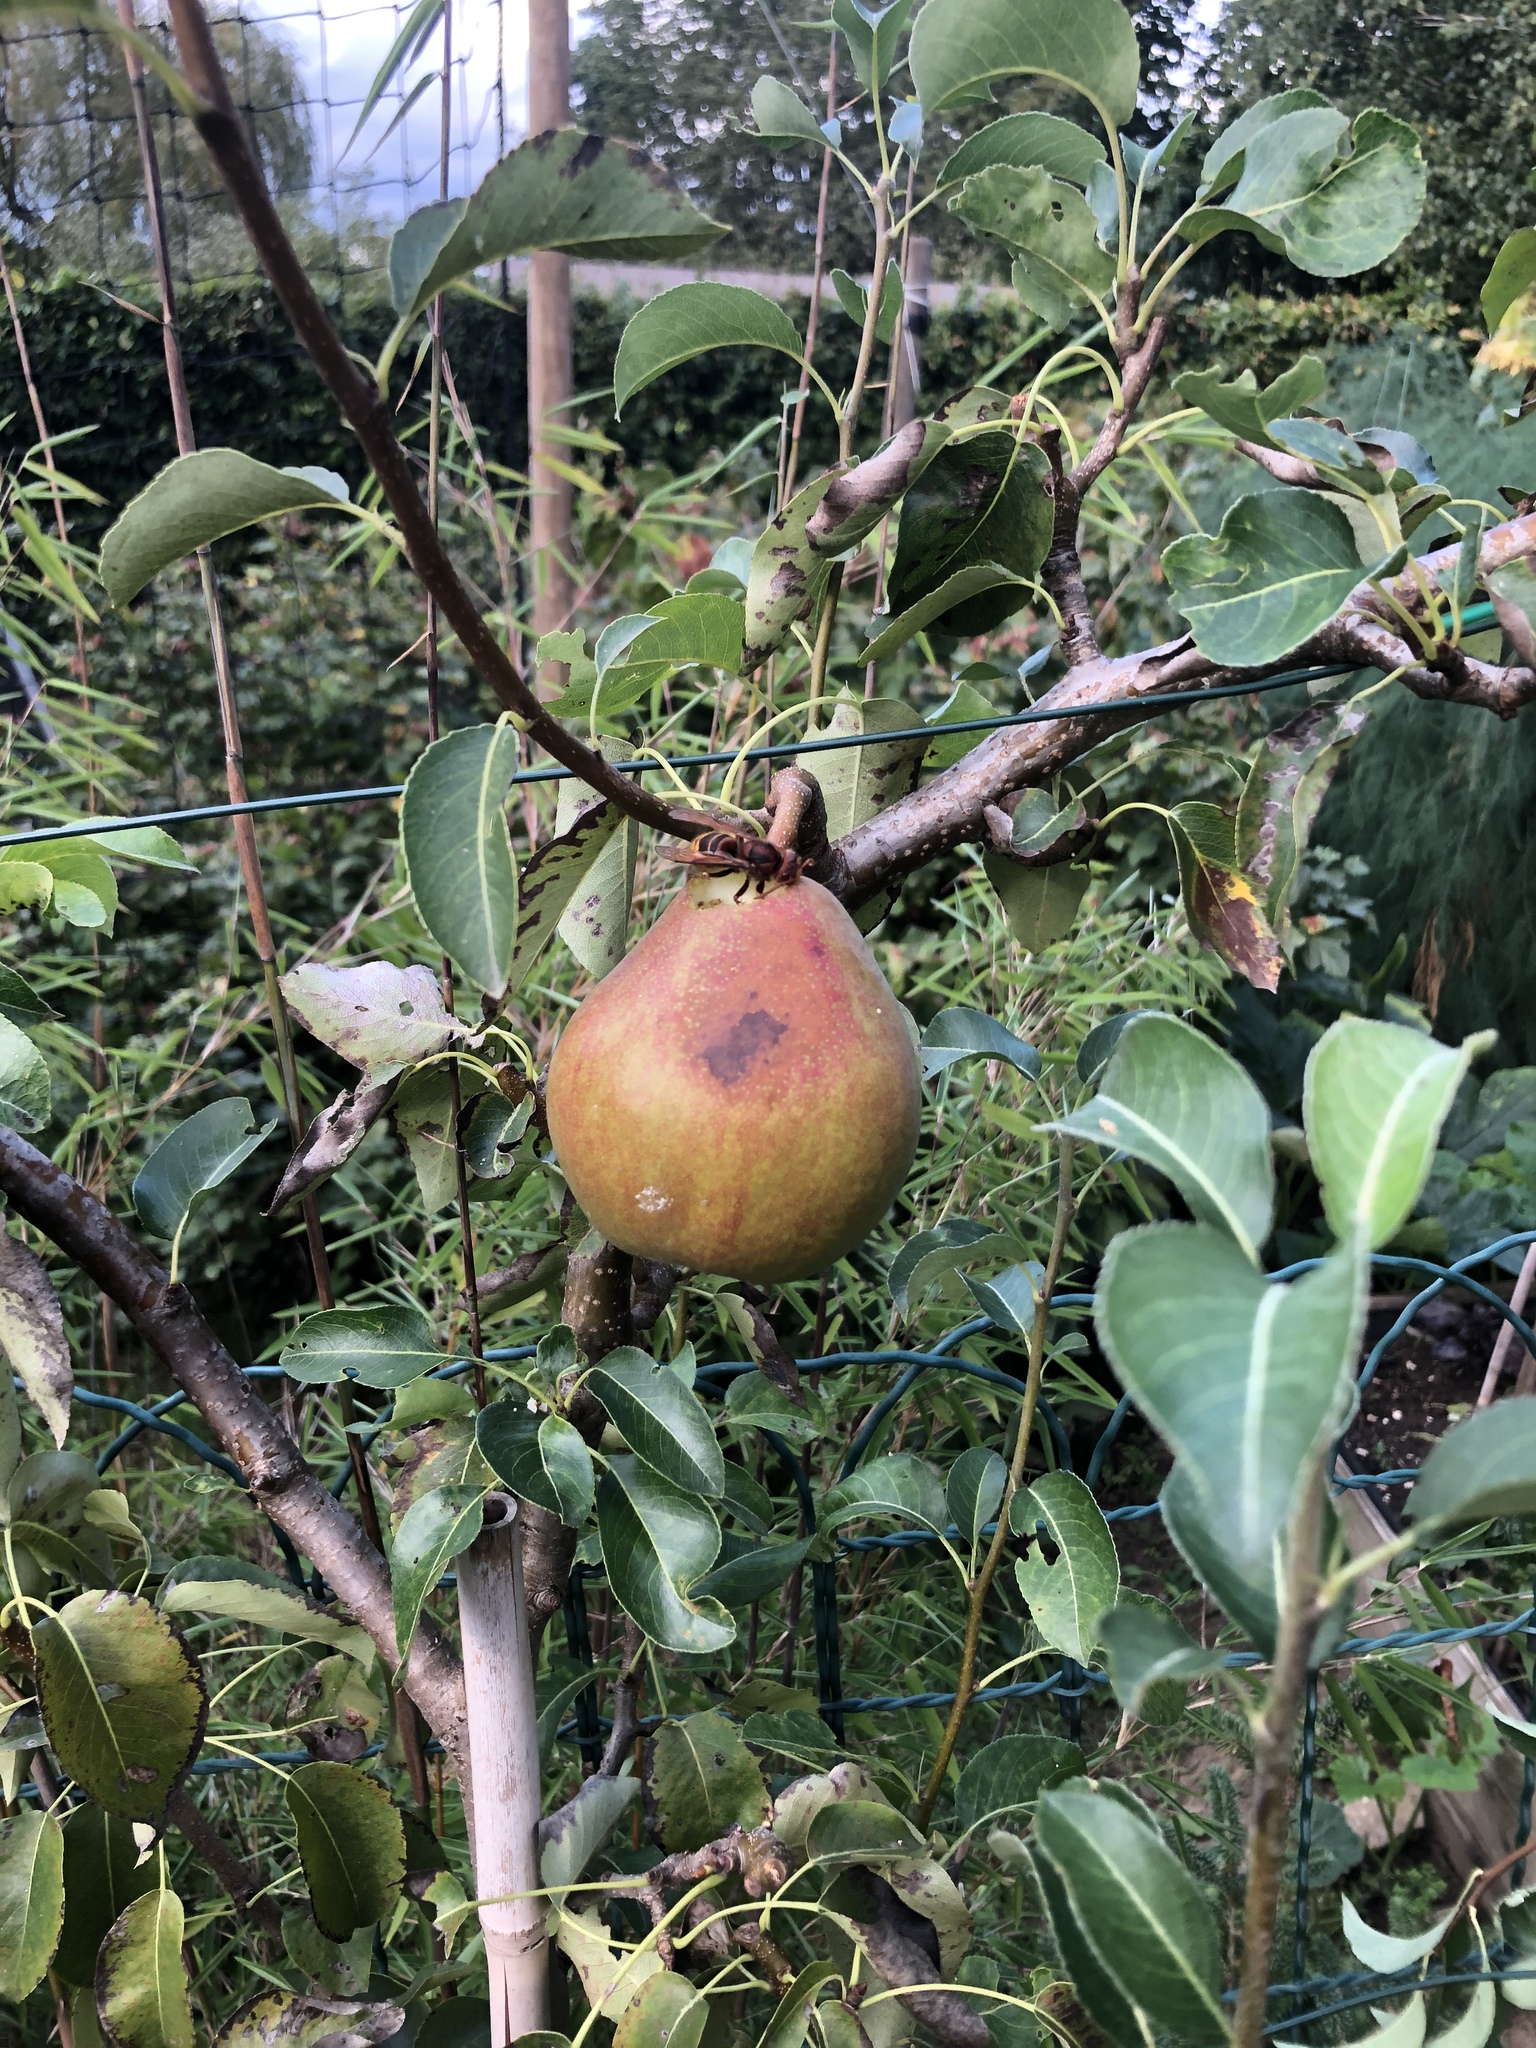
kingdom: Animalia
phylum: Arthropoda
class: Insecta
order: Hymenoptera
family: Vespidae
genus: Vespa
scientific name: Vespa crabro
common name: Hornet
